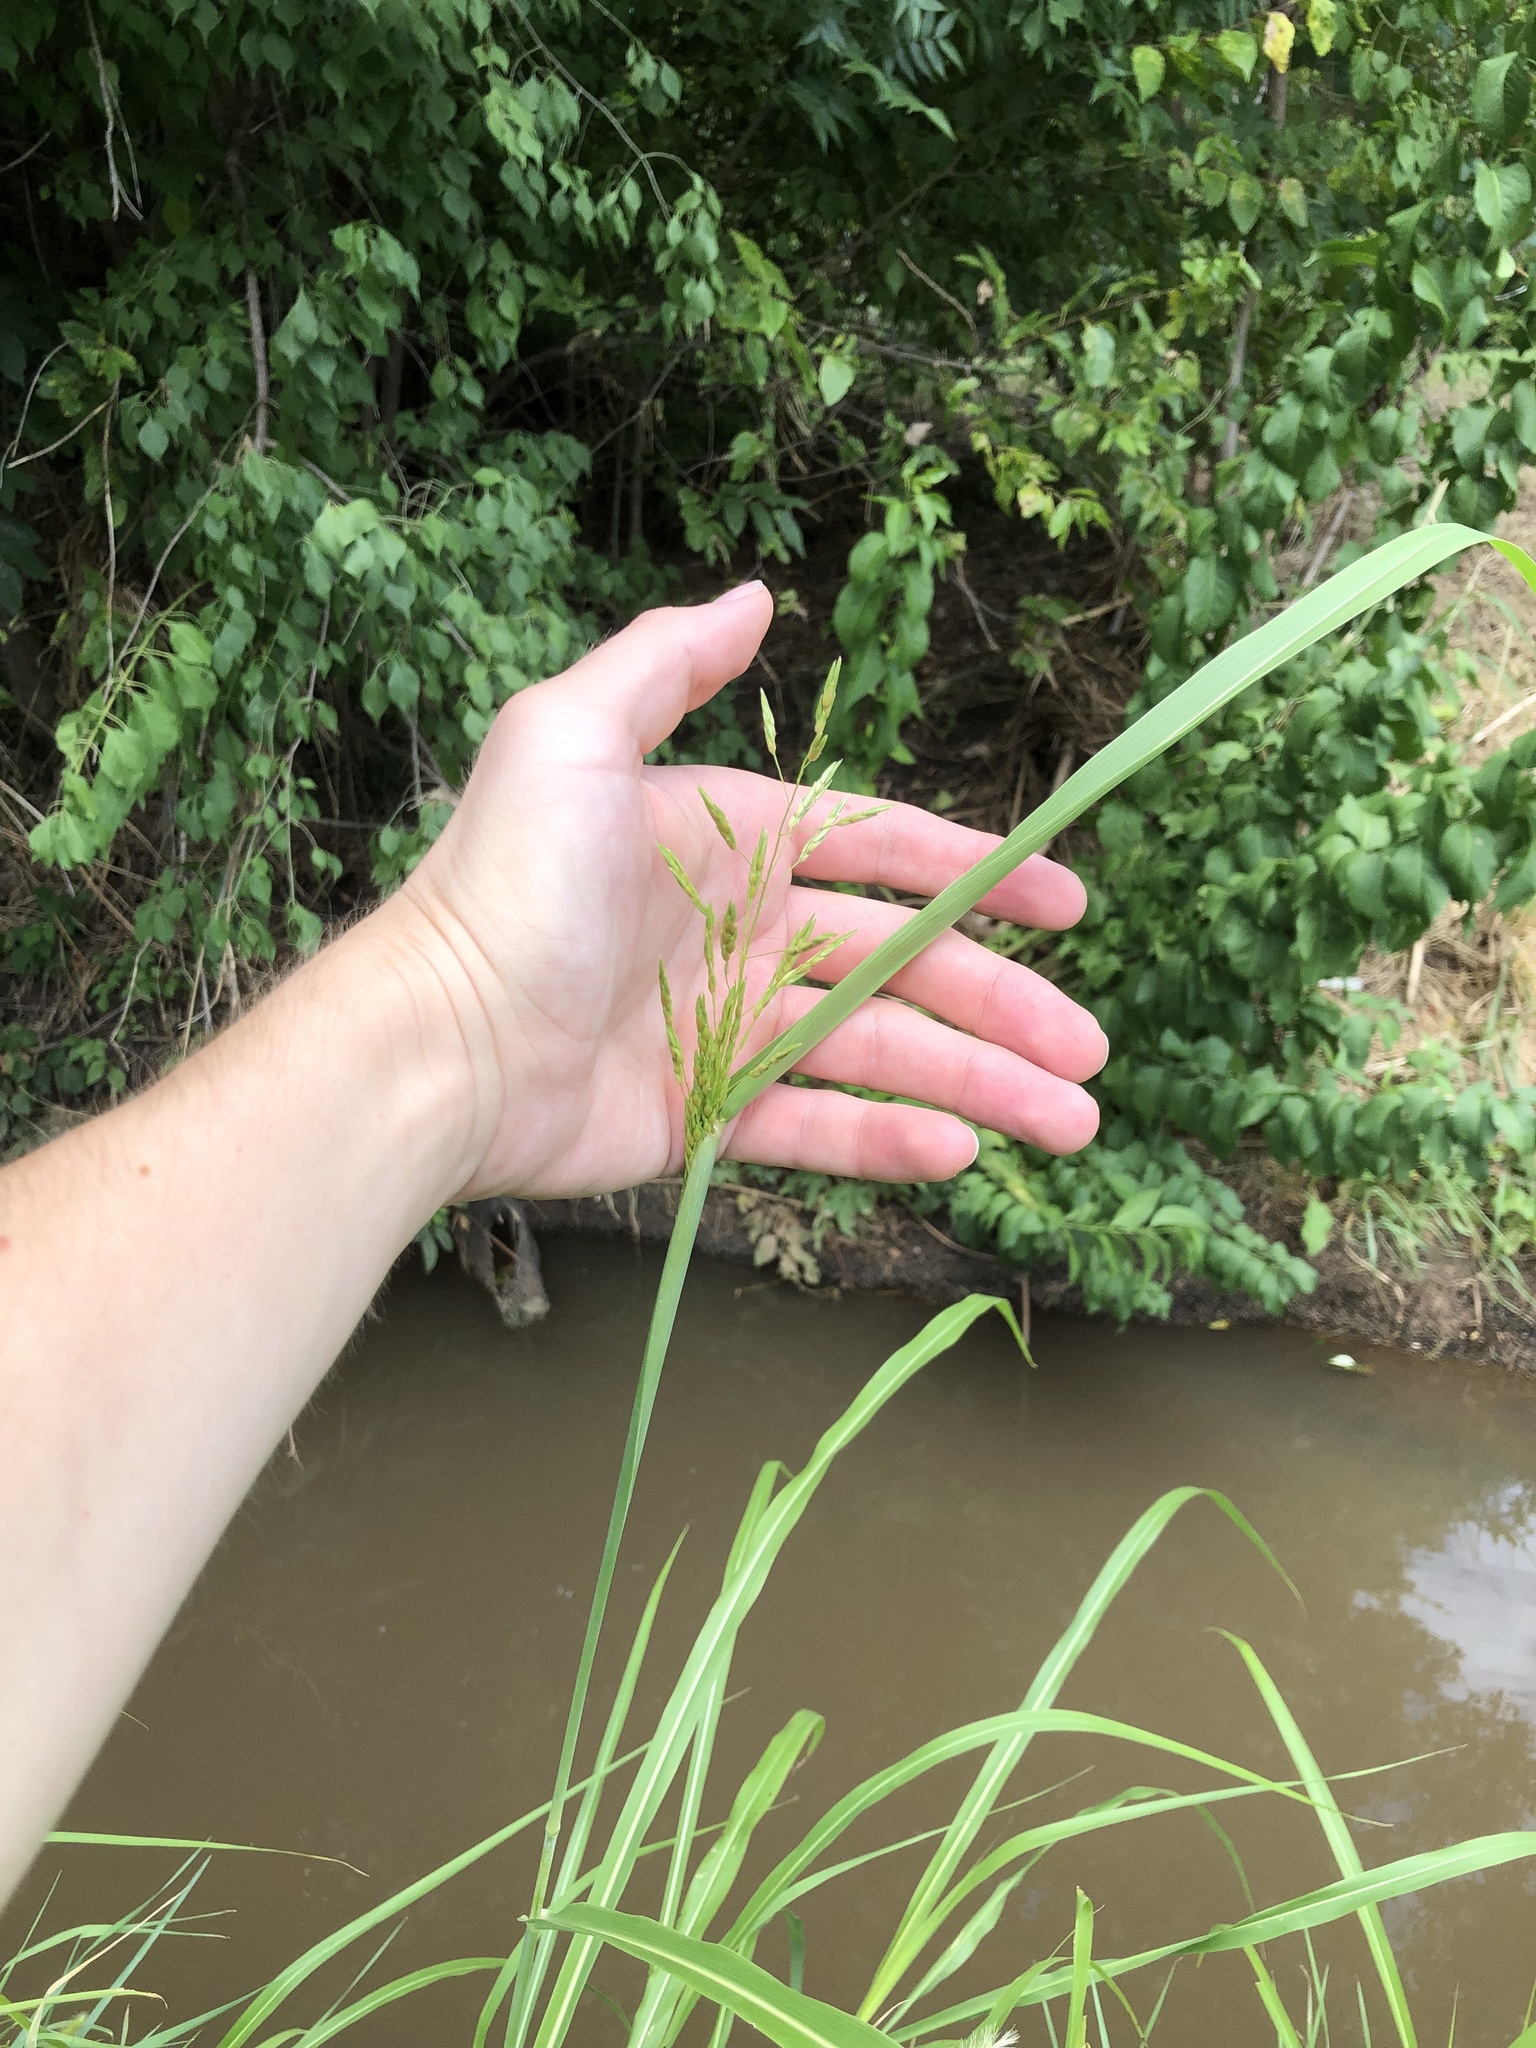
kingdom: Plantae
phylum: Tracheophyta
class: Liliopsida
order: Poales
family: Poaceae
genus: Sorghum
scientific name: Sorghum halepense
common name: Johnson-grass
